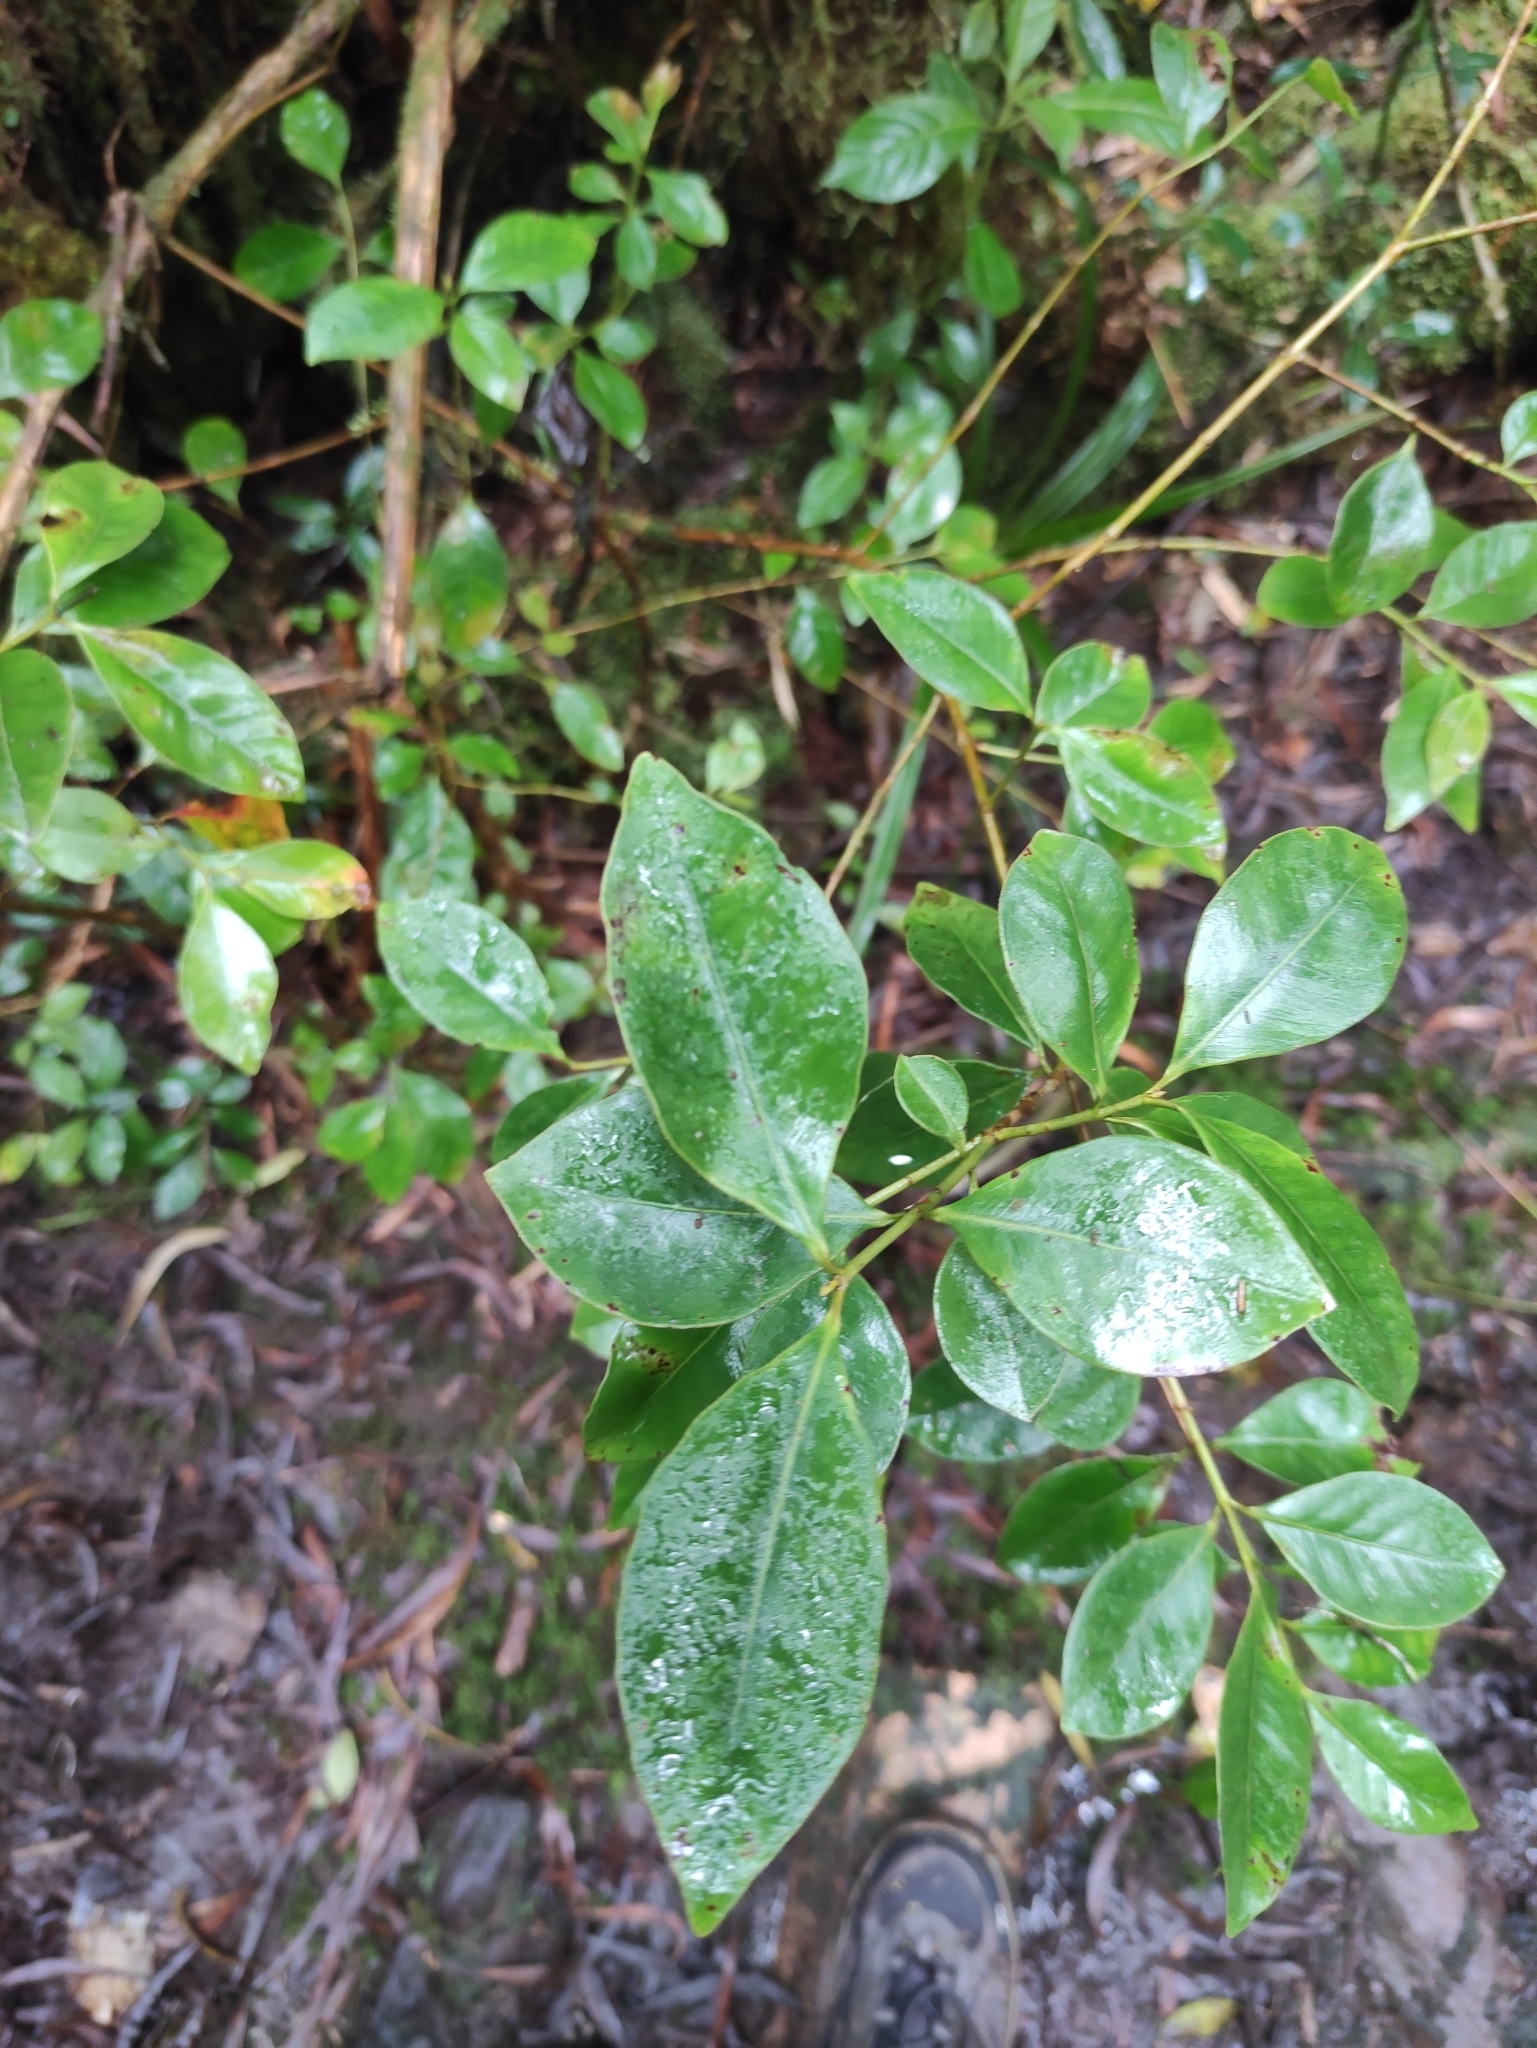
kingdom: Plantae
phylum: Tracheophyta
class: Magnoliopsida
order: Myrtales
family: Myrtaceae
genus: Psidium
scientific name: Psidium cattleianum
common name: Strawberry guava
